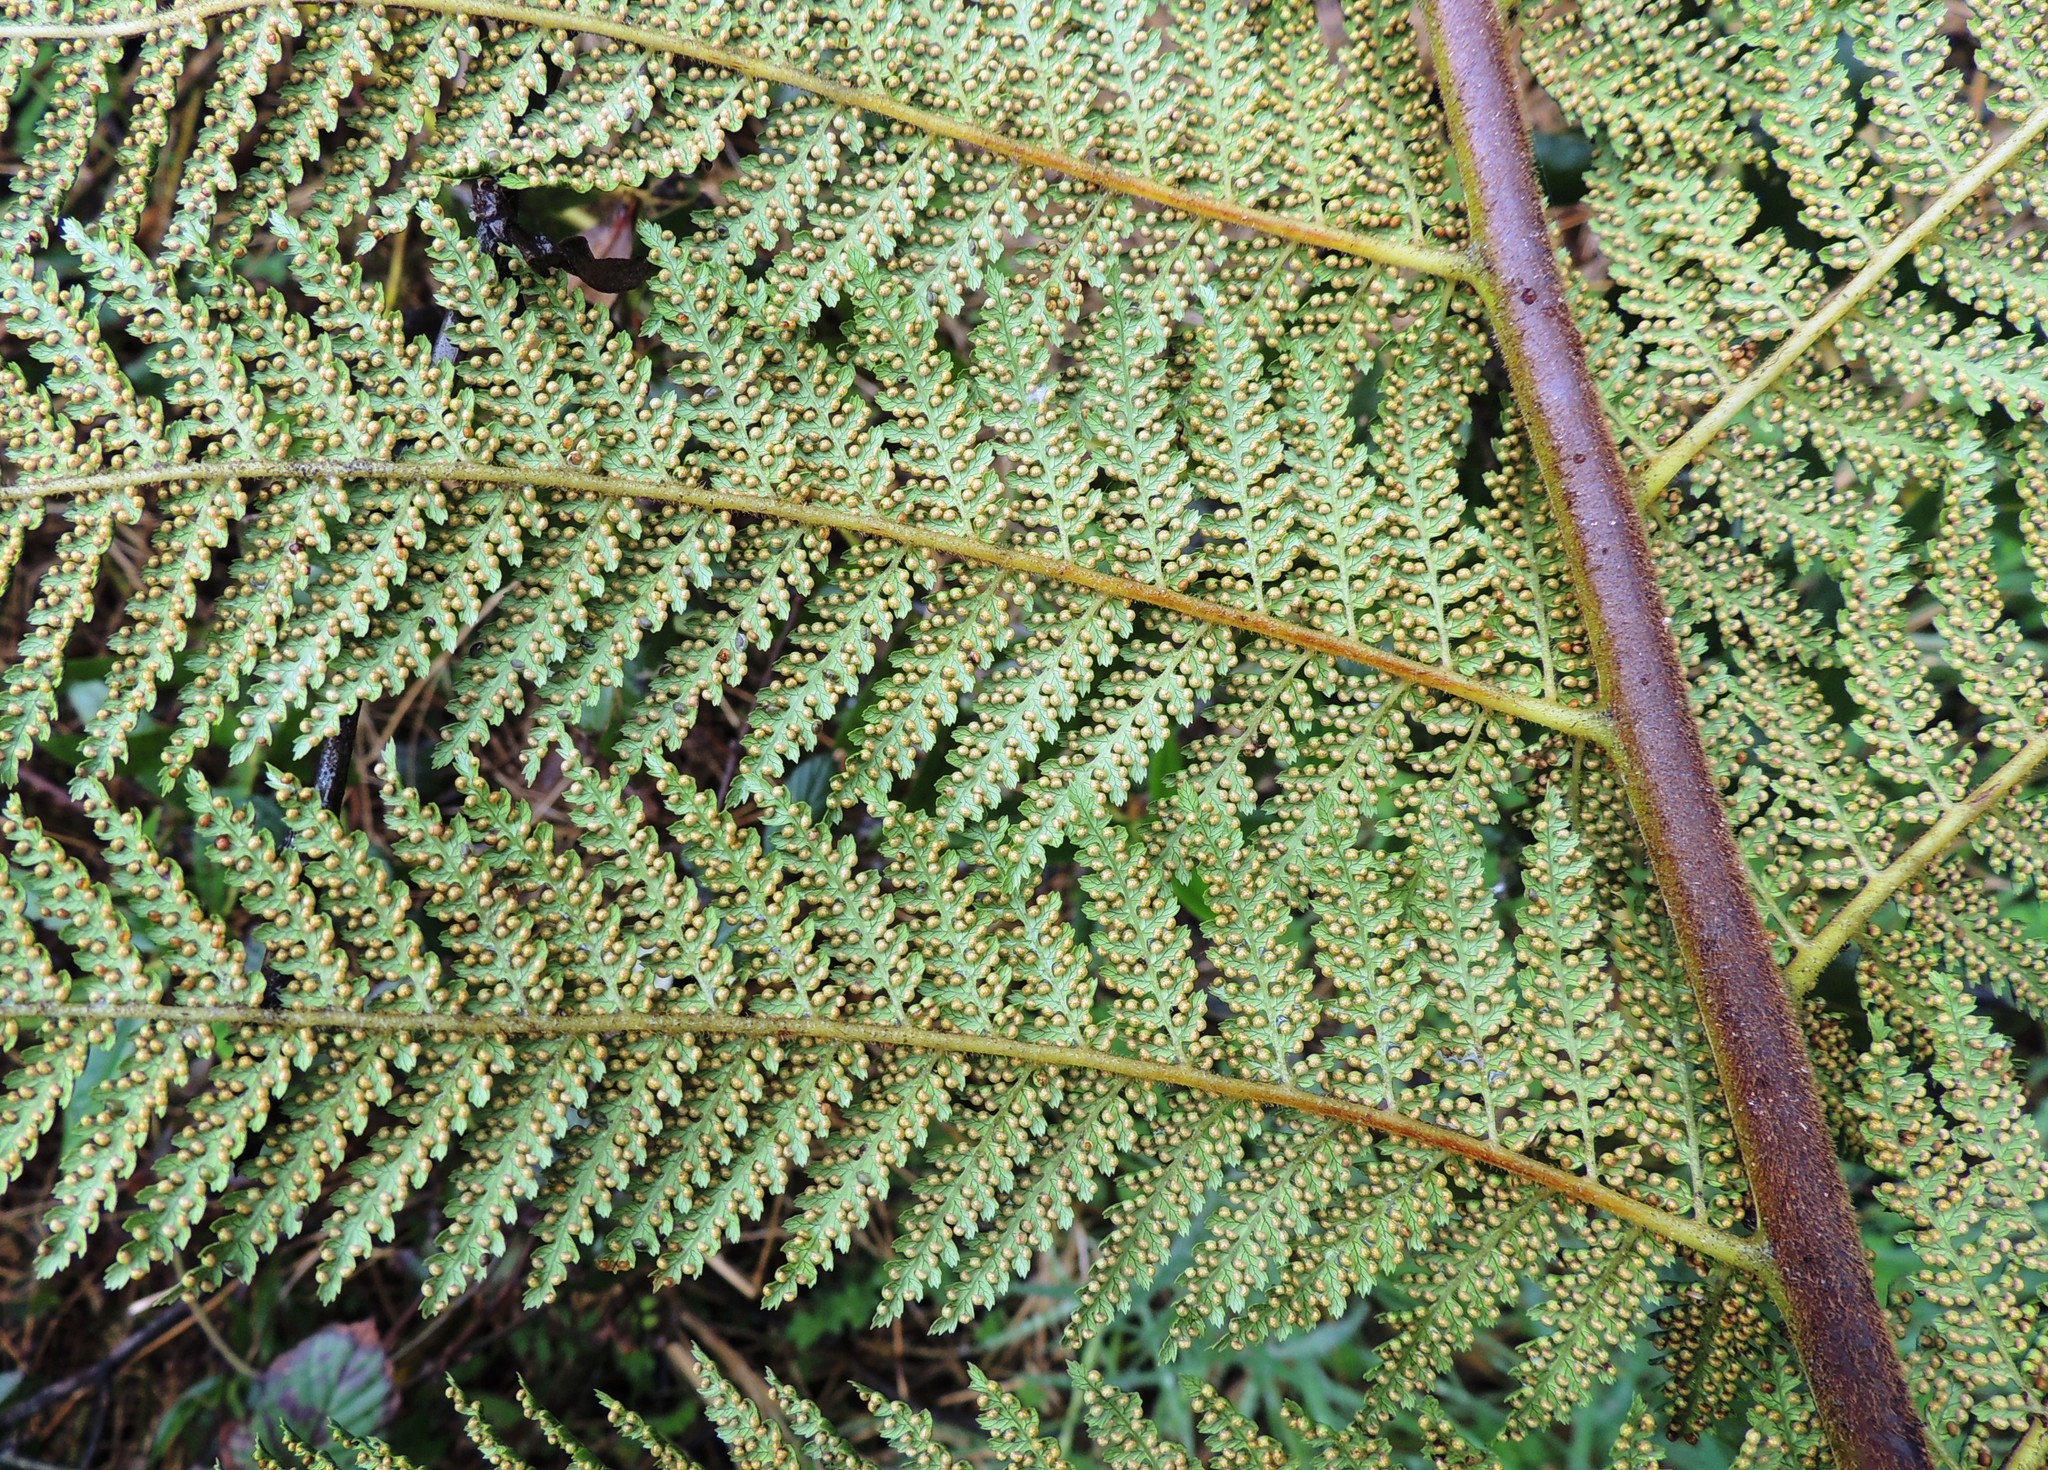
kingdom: Plantae
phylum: Tracheophyta
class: Polypodiopsida
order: Cyatheales
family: Dicksoniaceae
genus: Dicksonia
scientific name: Dicksonia fibrosa
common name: Golden tree fern
